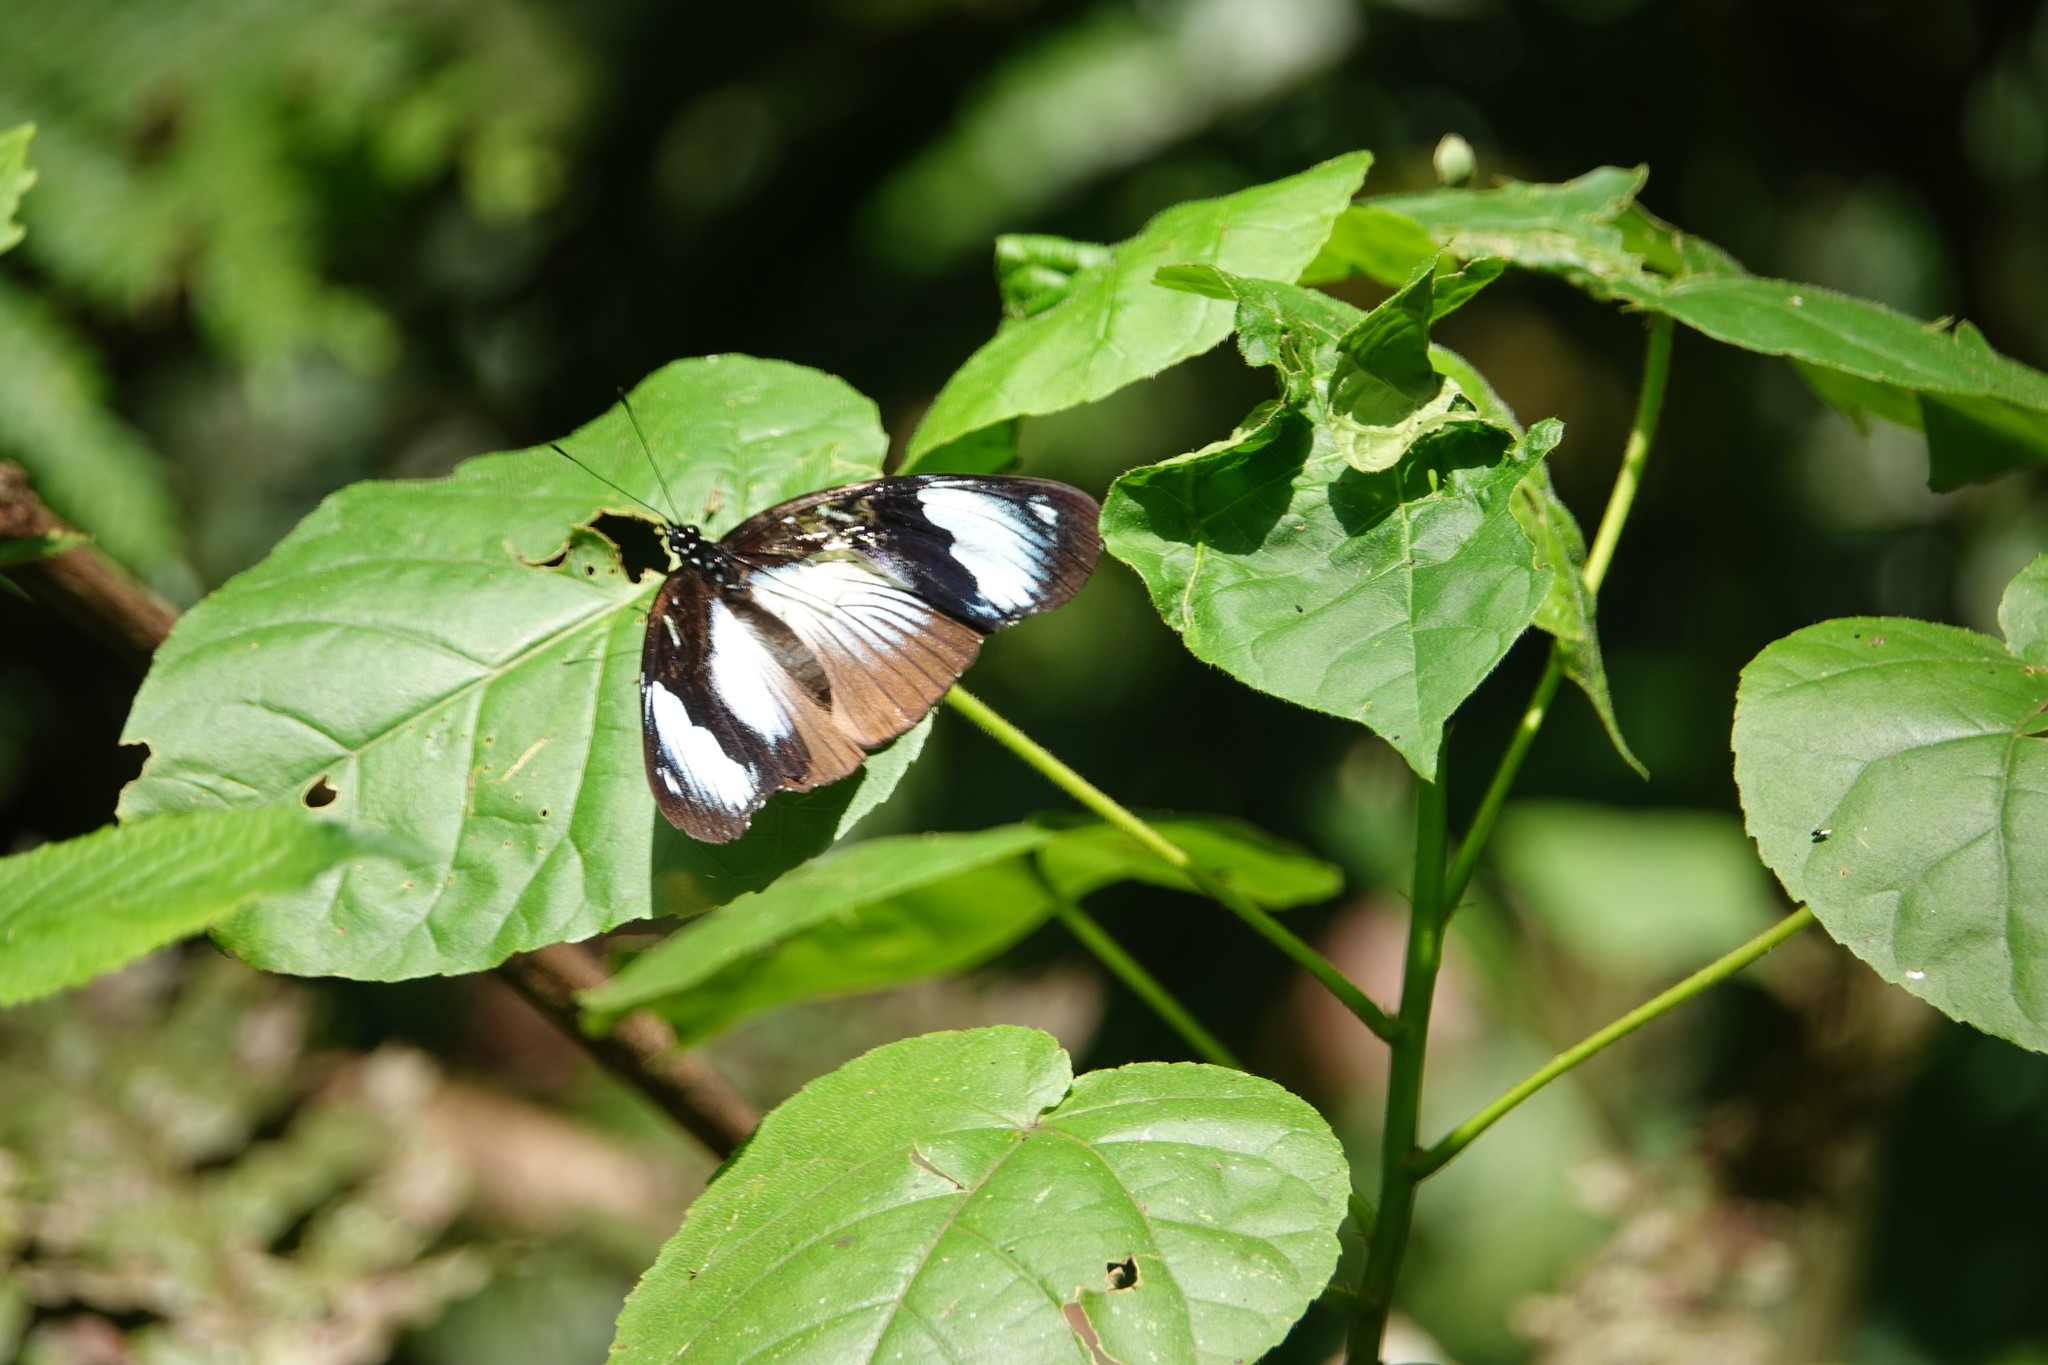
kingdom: Animalia
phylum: Arthropoda
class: Insecta
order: Lepidoptera
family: Nymphalidae
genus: Hypolimnas
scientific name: Hypolimnas dubius
